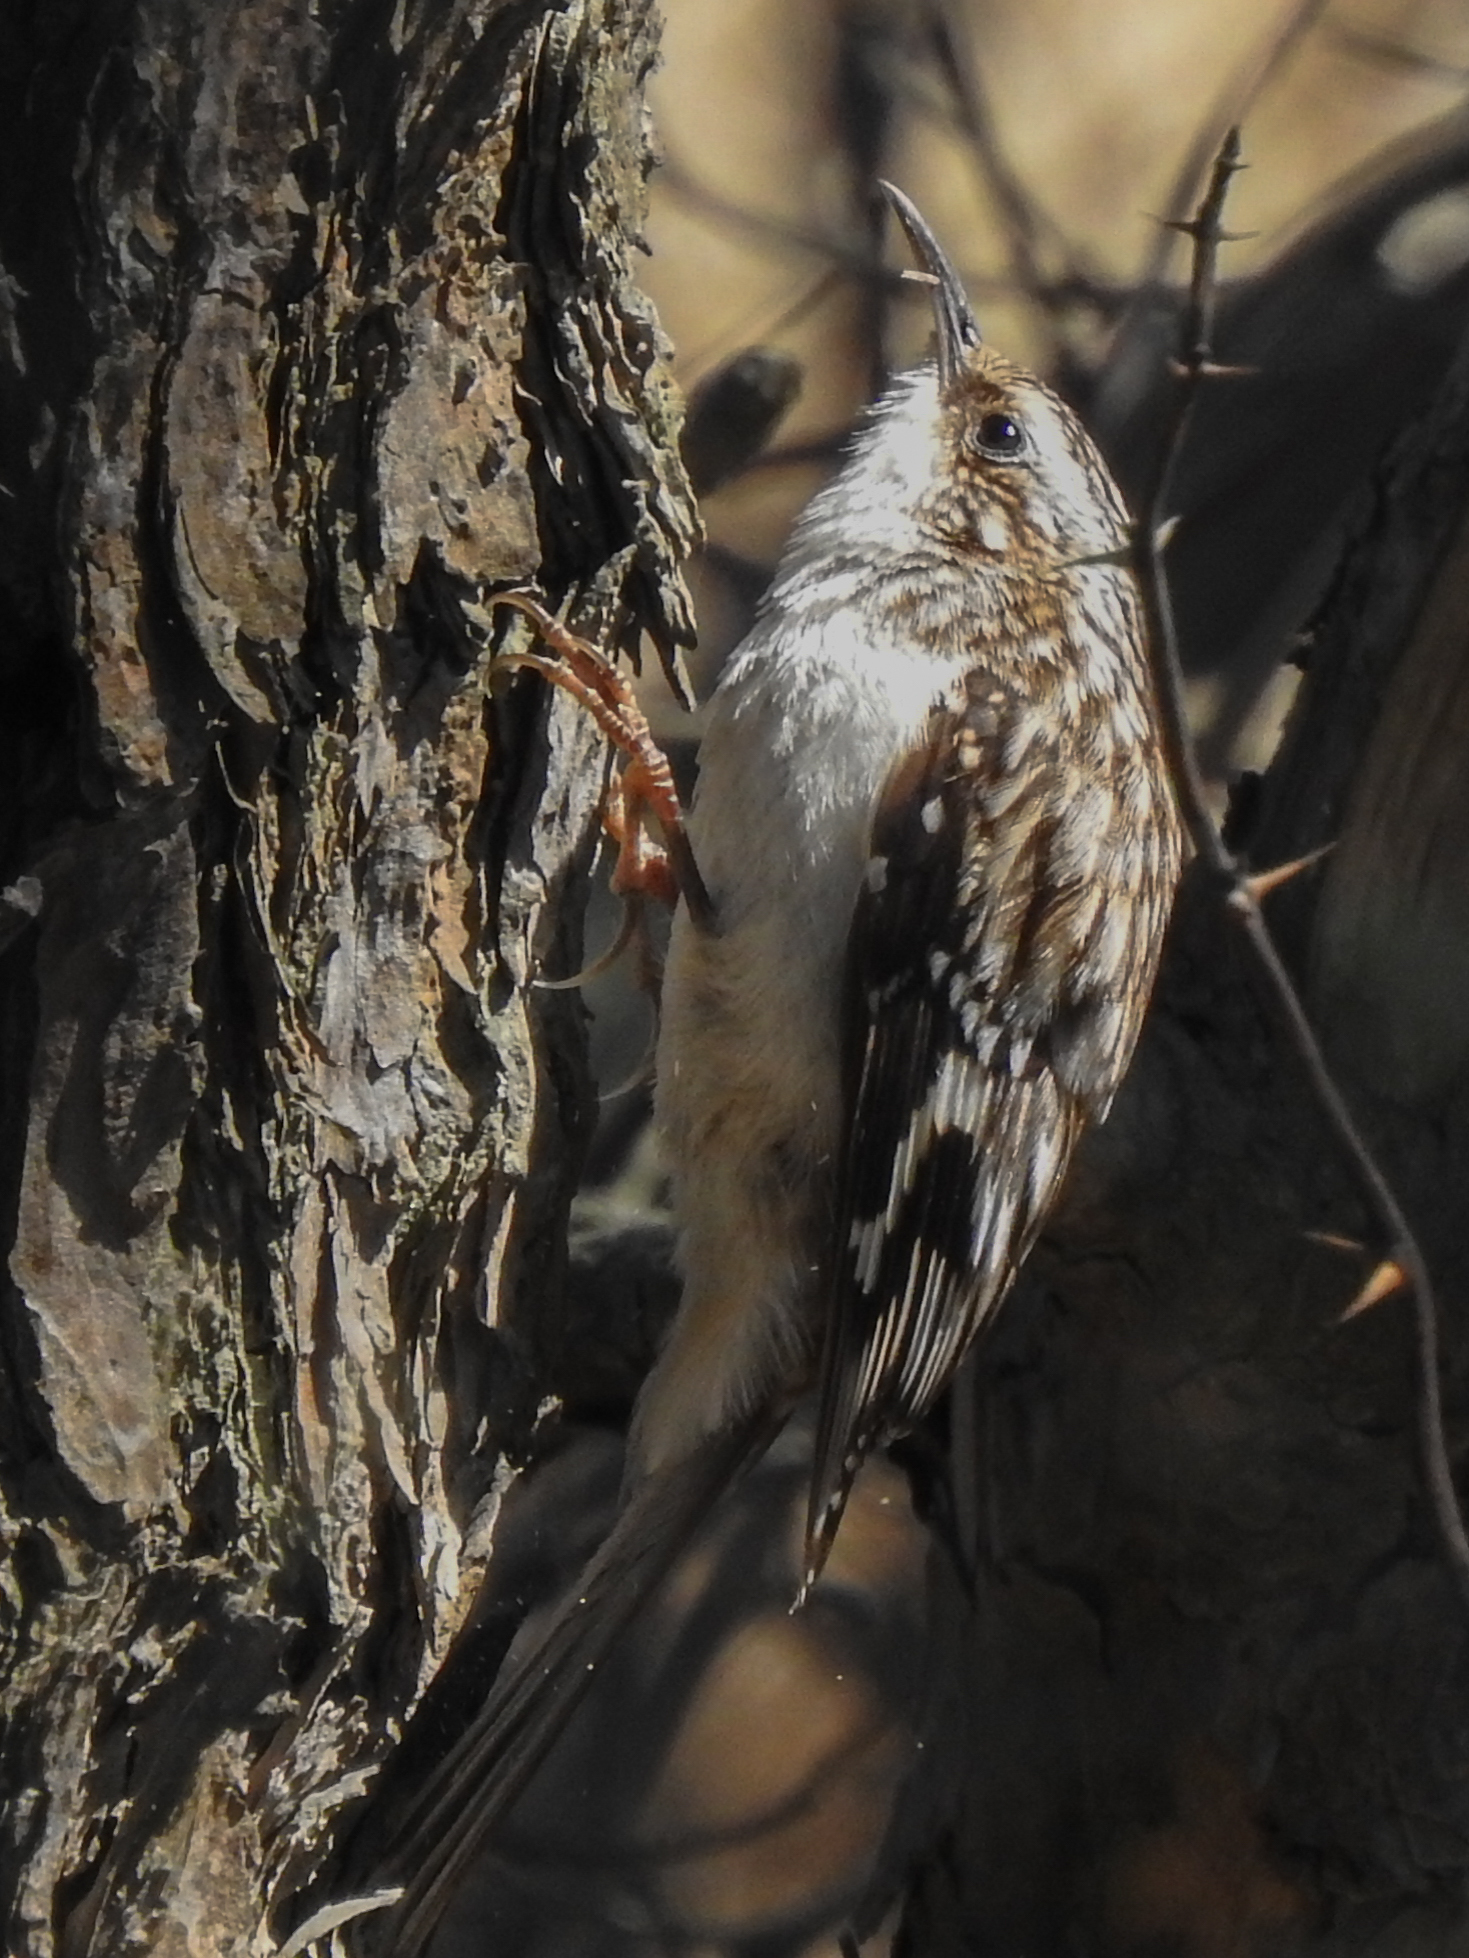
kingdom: Animalia
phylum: Chordata
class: Aves
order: Passeriformes
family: Certhiidae
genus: Certhia
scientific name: Certhia americana
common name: Brown creeper
